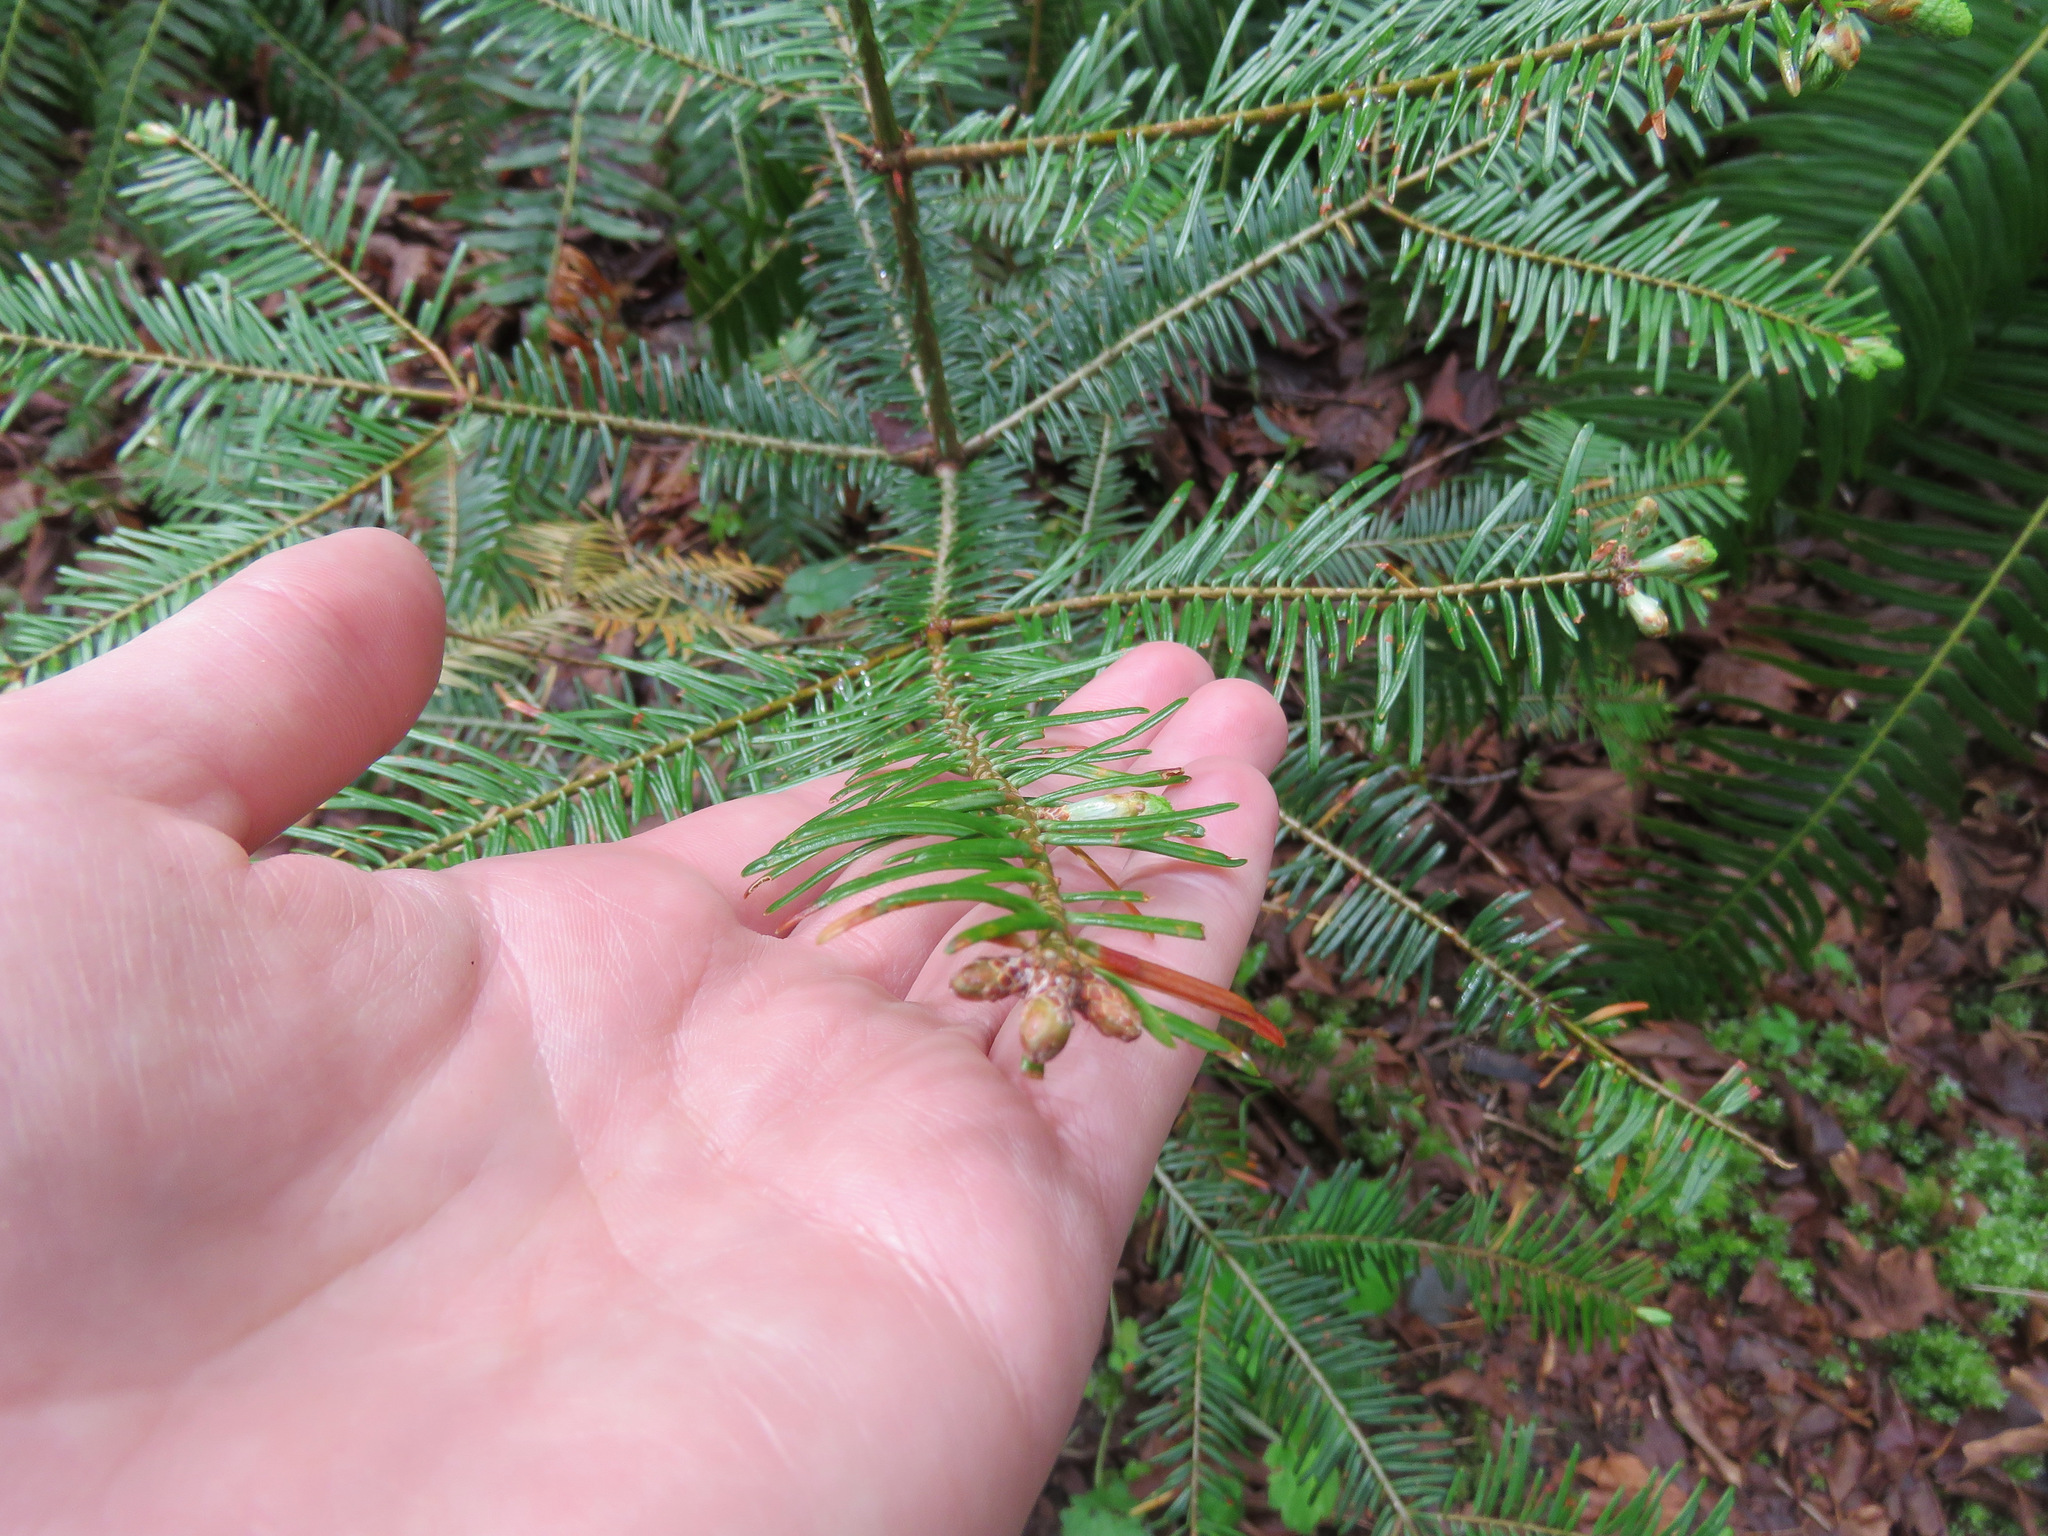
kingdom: Plantae
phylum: Tracheophyta
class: Pinopsida
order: Pinales
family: Pinaceae
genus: Abies
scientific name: Abies grandis
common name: Giant fir
